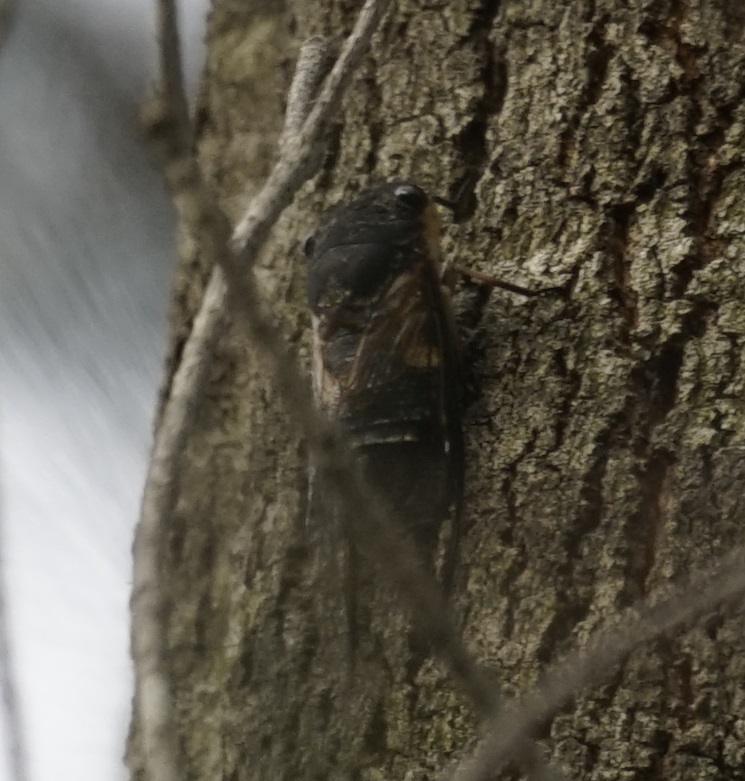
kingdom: Animalia
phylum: Arthropoda
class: Insecta
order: Hemiptera
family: Cicadidae
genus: Psaltoda
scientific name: Psaltoda plaga
